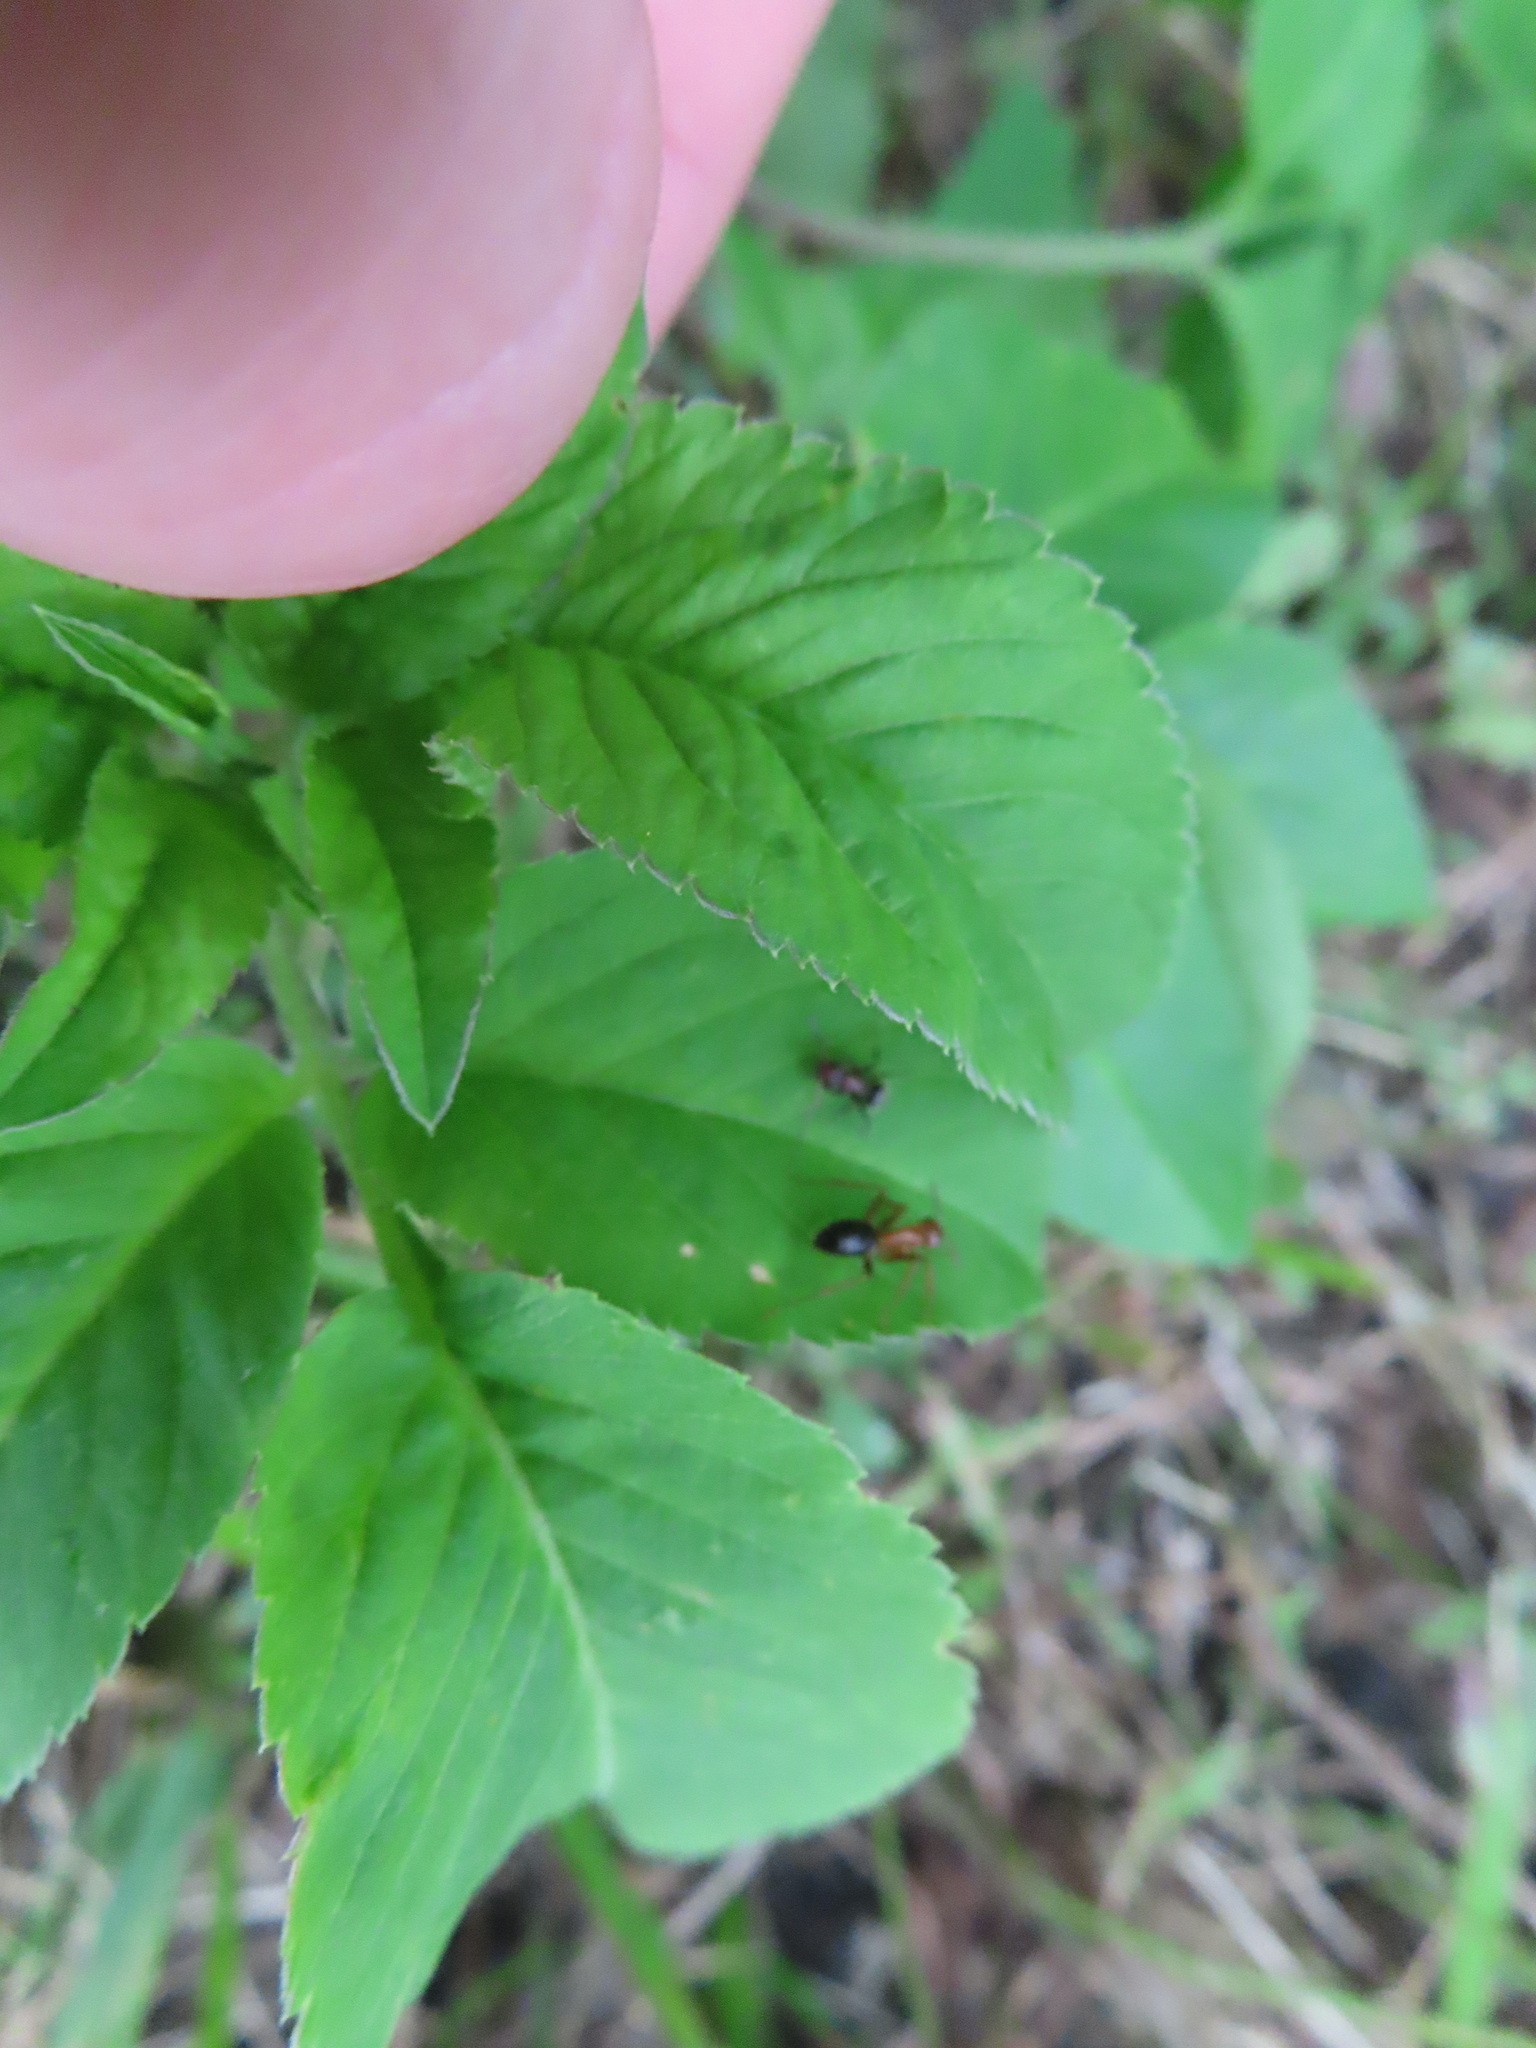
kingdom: Animalia
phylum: Arthropoda
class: Insecta
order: Hymenoptera
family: Formicidae
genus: Camponotus
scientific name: Camponotus floridanus
